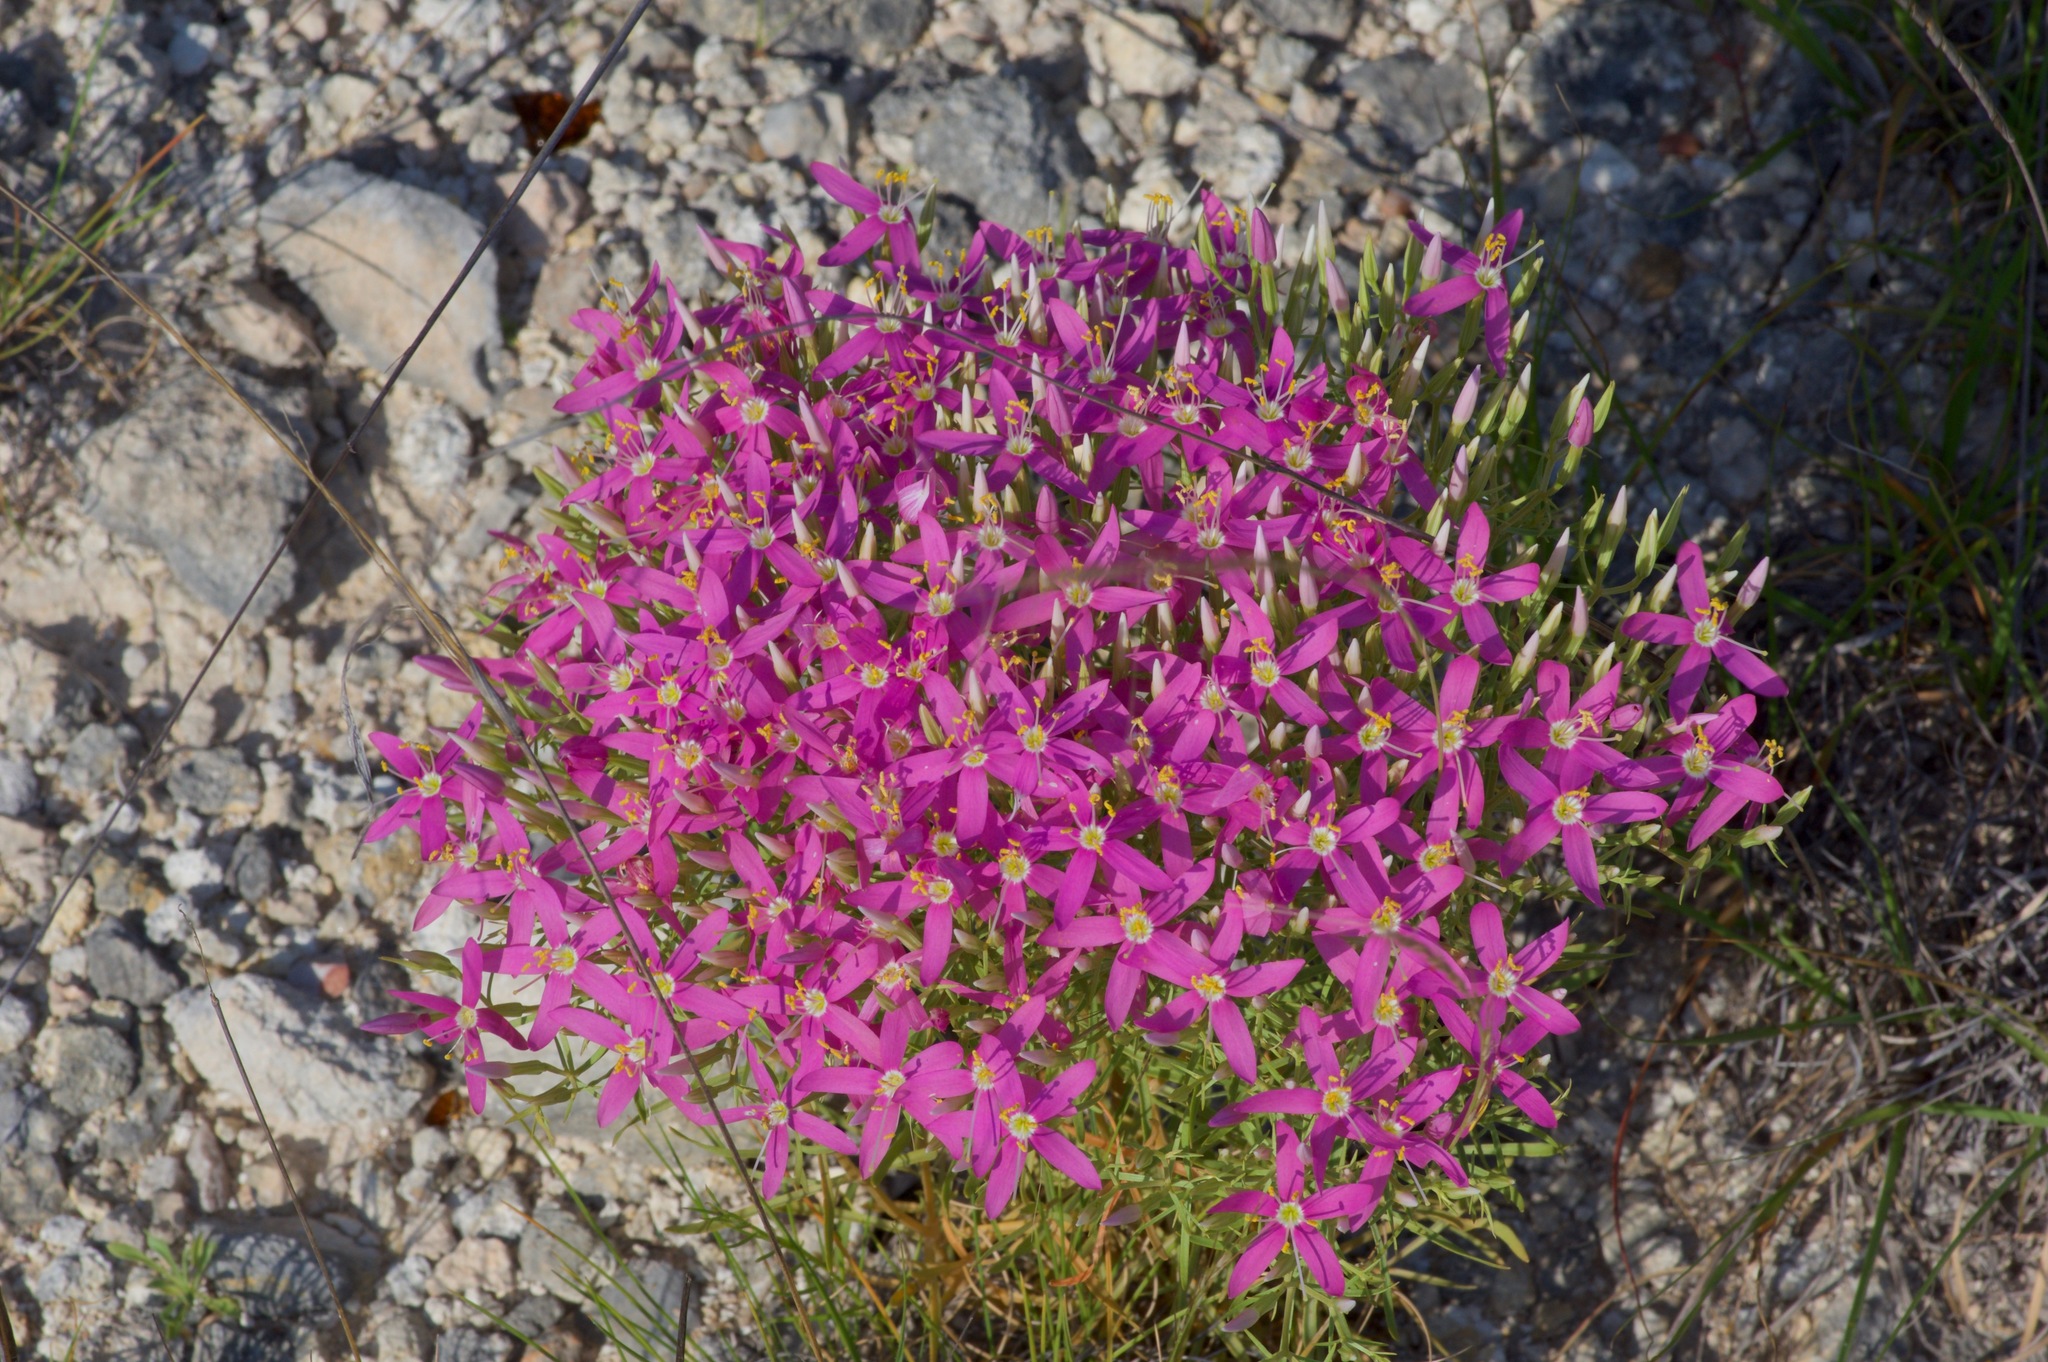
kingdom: Plantae
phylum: Tracheophyta
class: Magnoliopsida
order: Gentianales
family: Gentianaceae
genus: Zeltnera
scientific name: Zeltnera beyrichii
